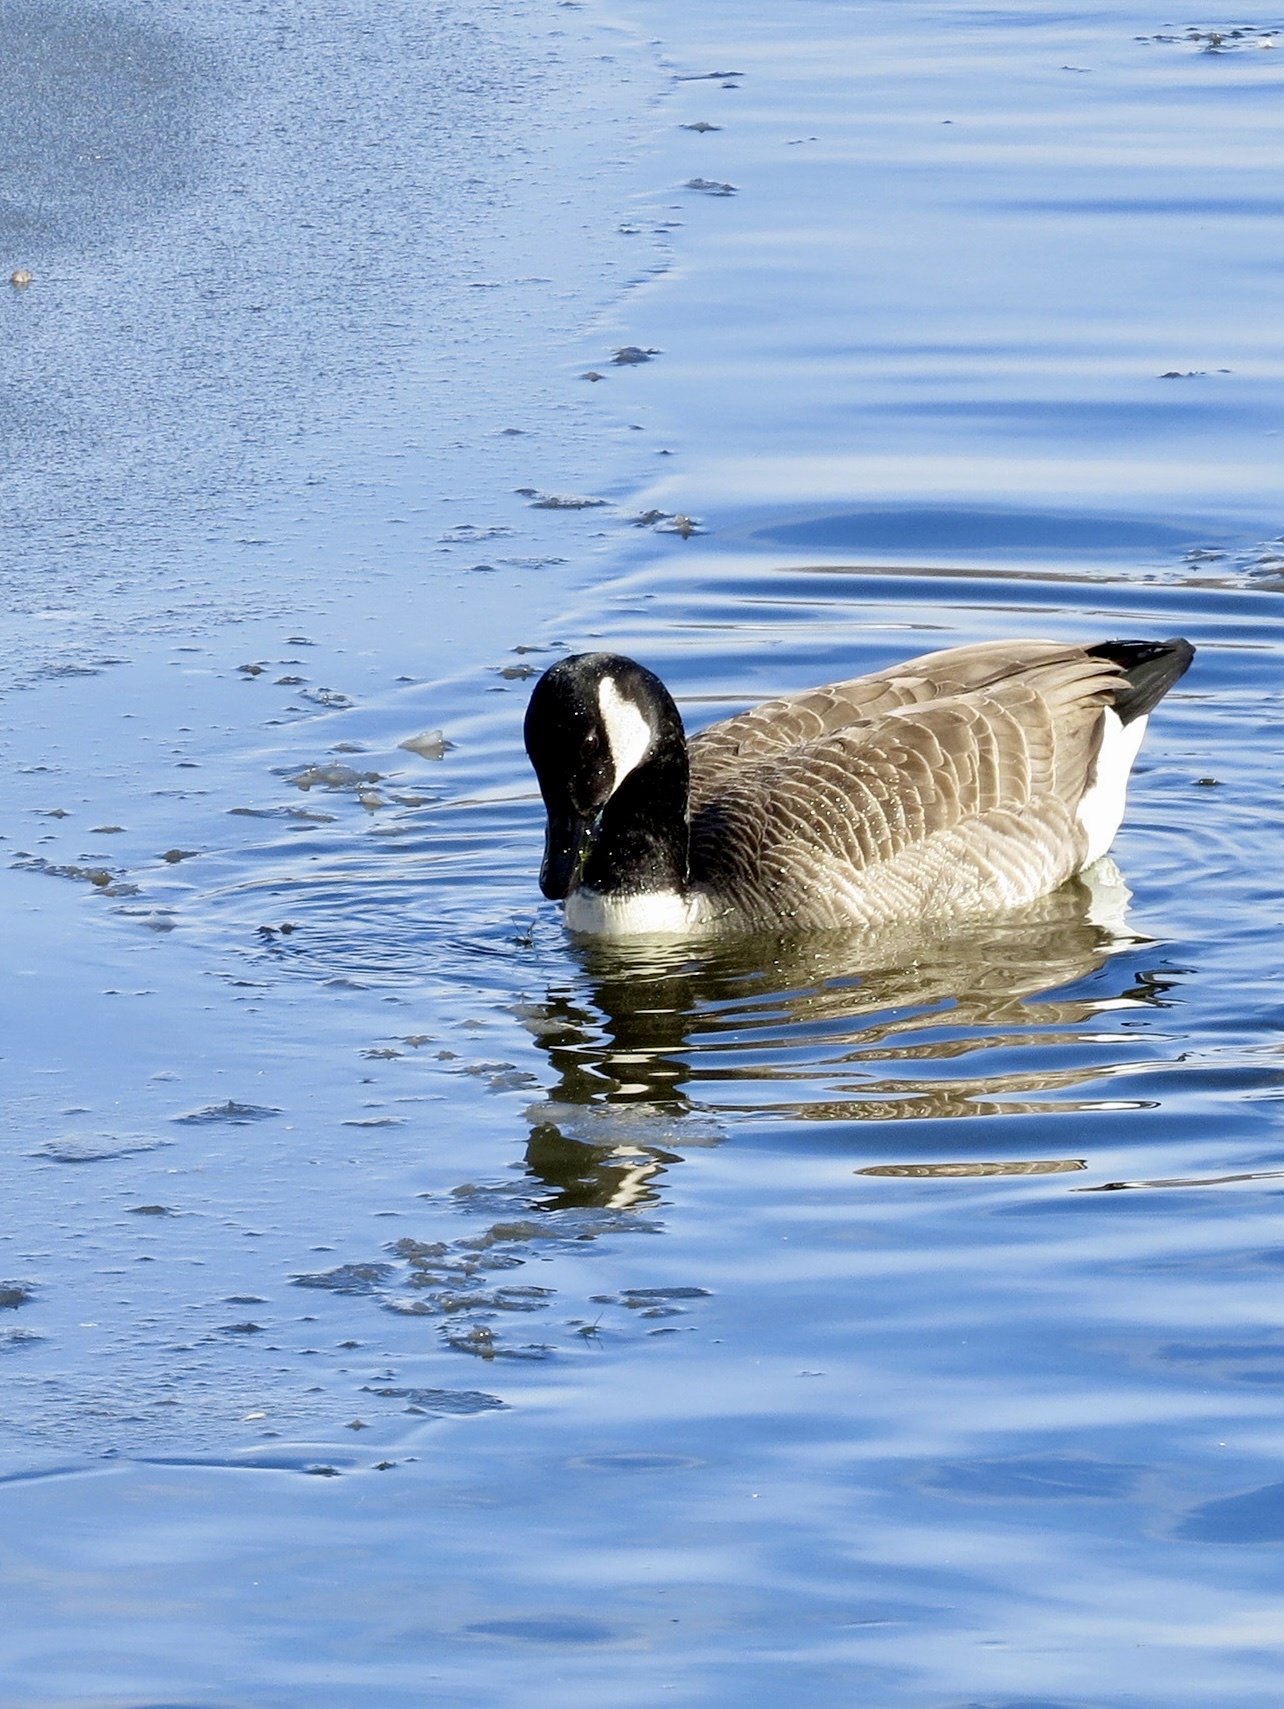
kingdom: Animalia
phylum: Chordata
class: Aves
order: Anseriformes
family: Anatidae
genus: Branta
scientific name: Branta canadensis
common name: Canada goose
